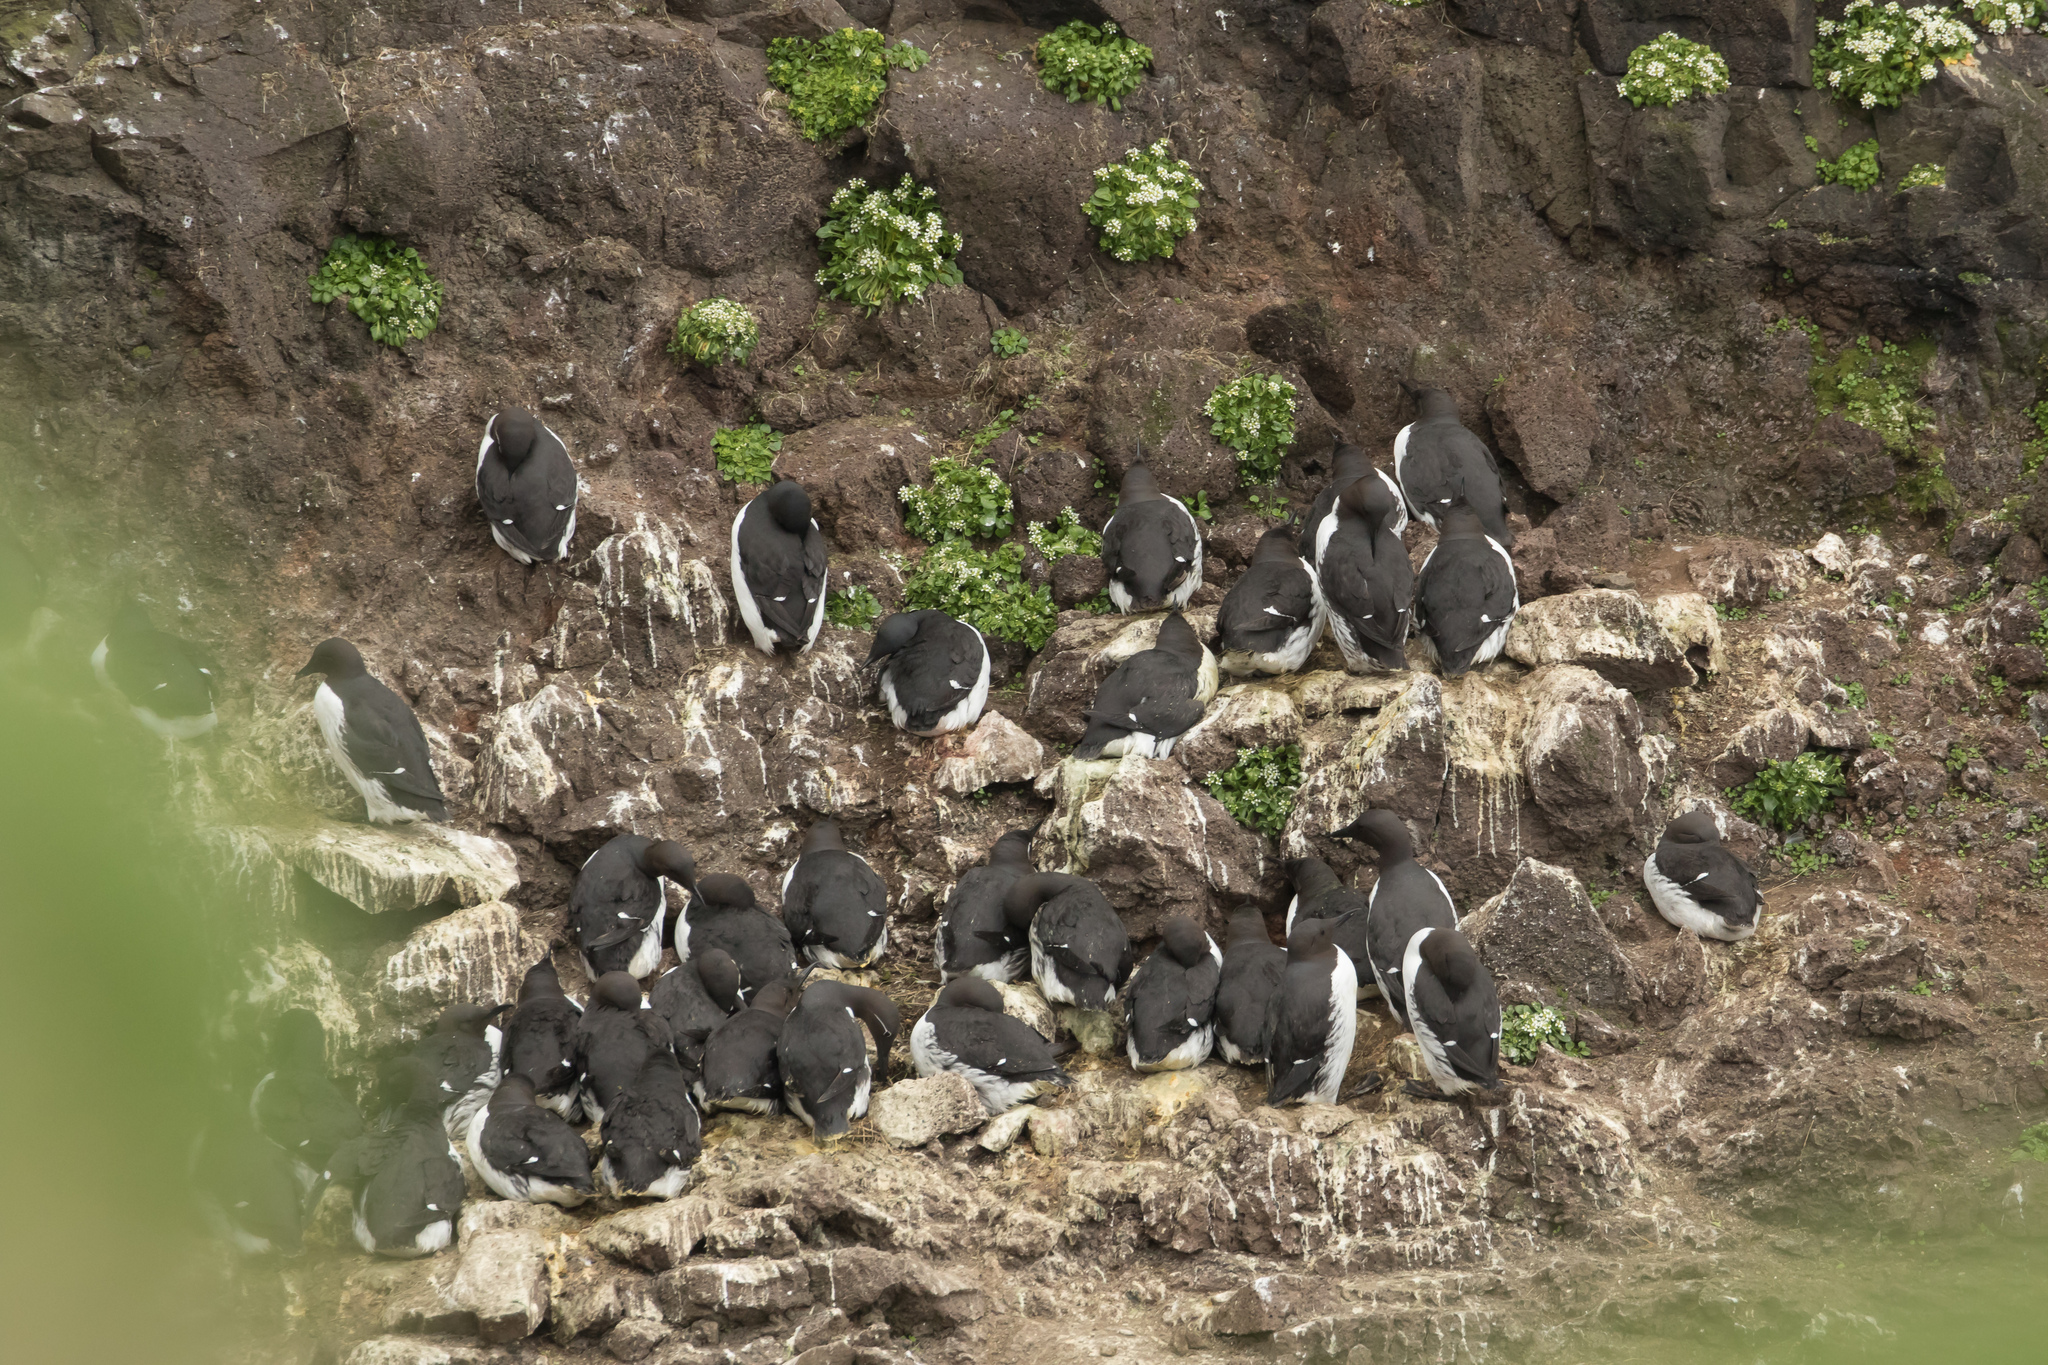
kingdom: Animalia
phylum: Chordata
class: Aves
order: Charadriiformes
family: Alcidae
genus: Uria
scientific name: Uria aalge
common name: Common murre
